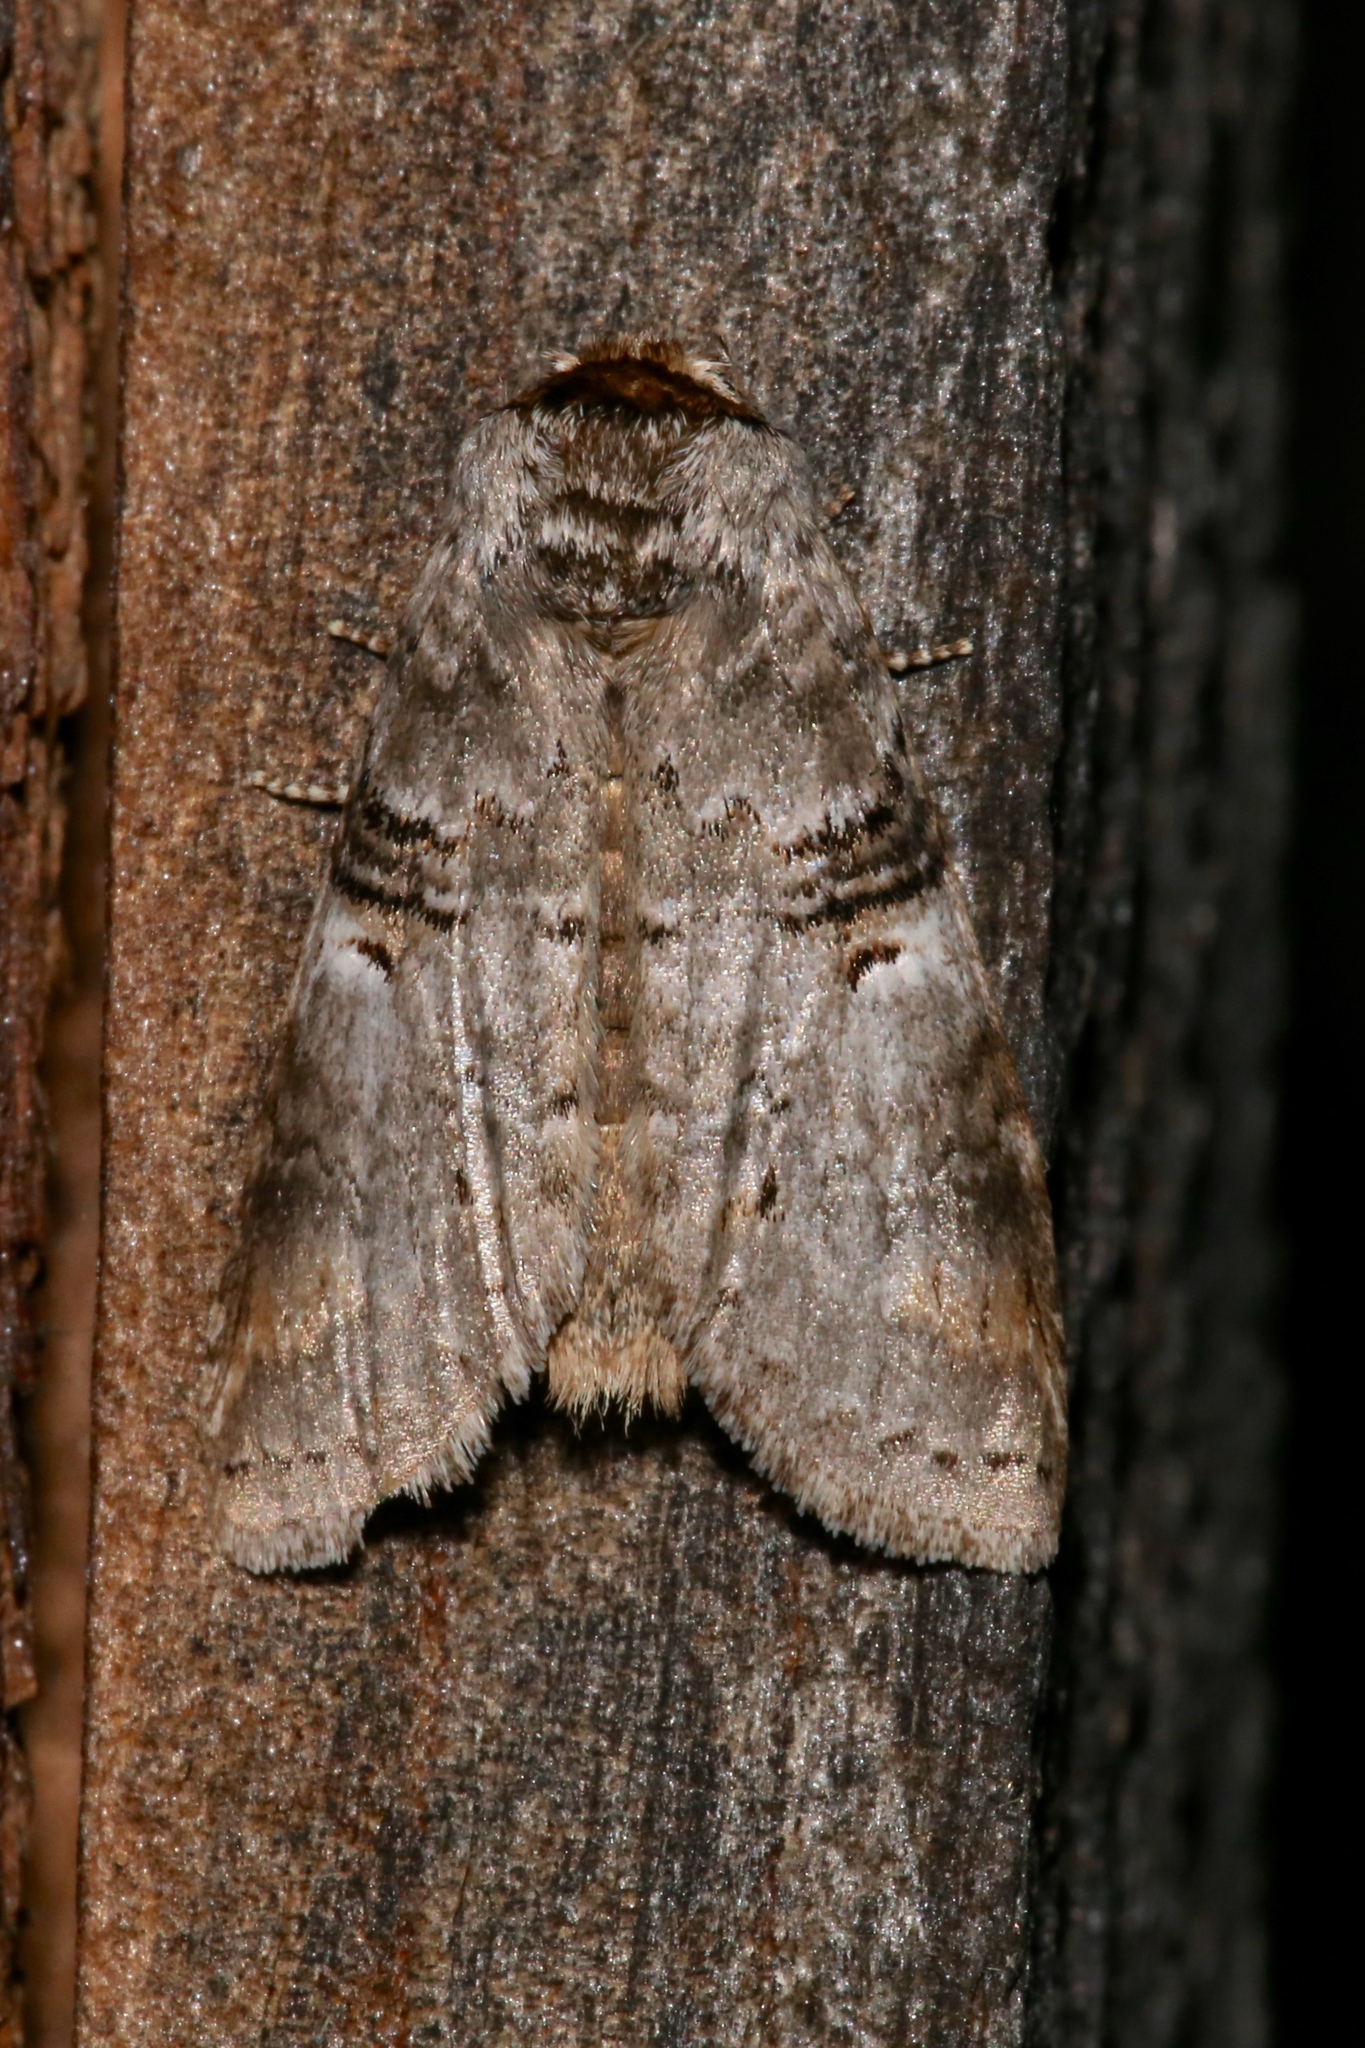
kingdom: Animalia
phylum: Arthropoda
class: Insecta
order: Lepidoptera
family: Notodontidae
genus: Ellida
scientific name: Ellida caniplaga
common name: Linden prominent
